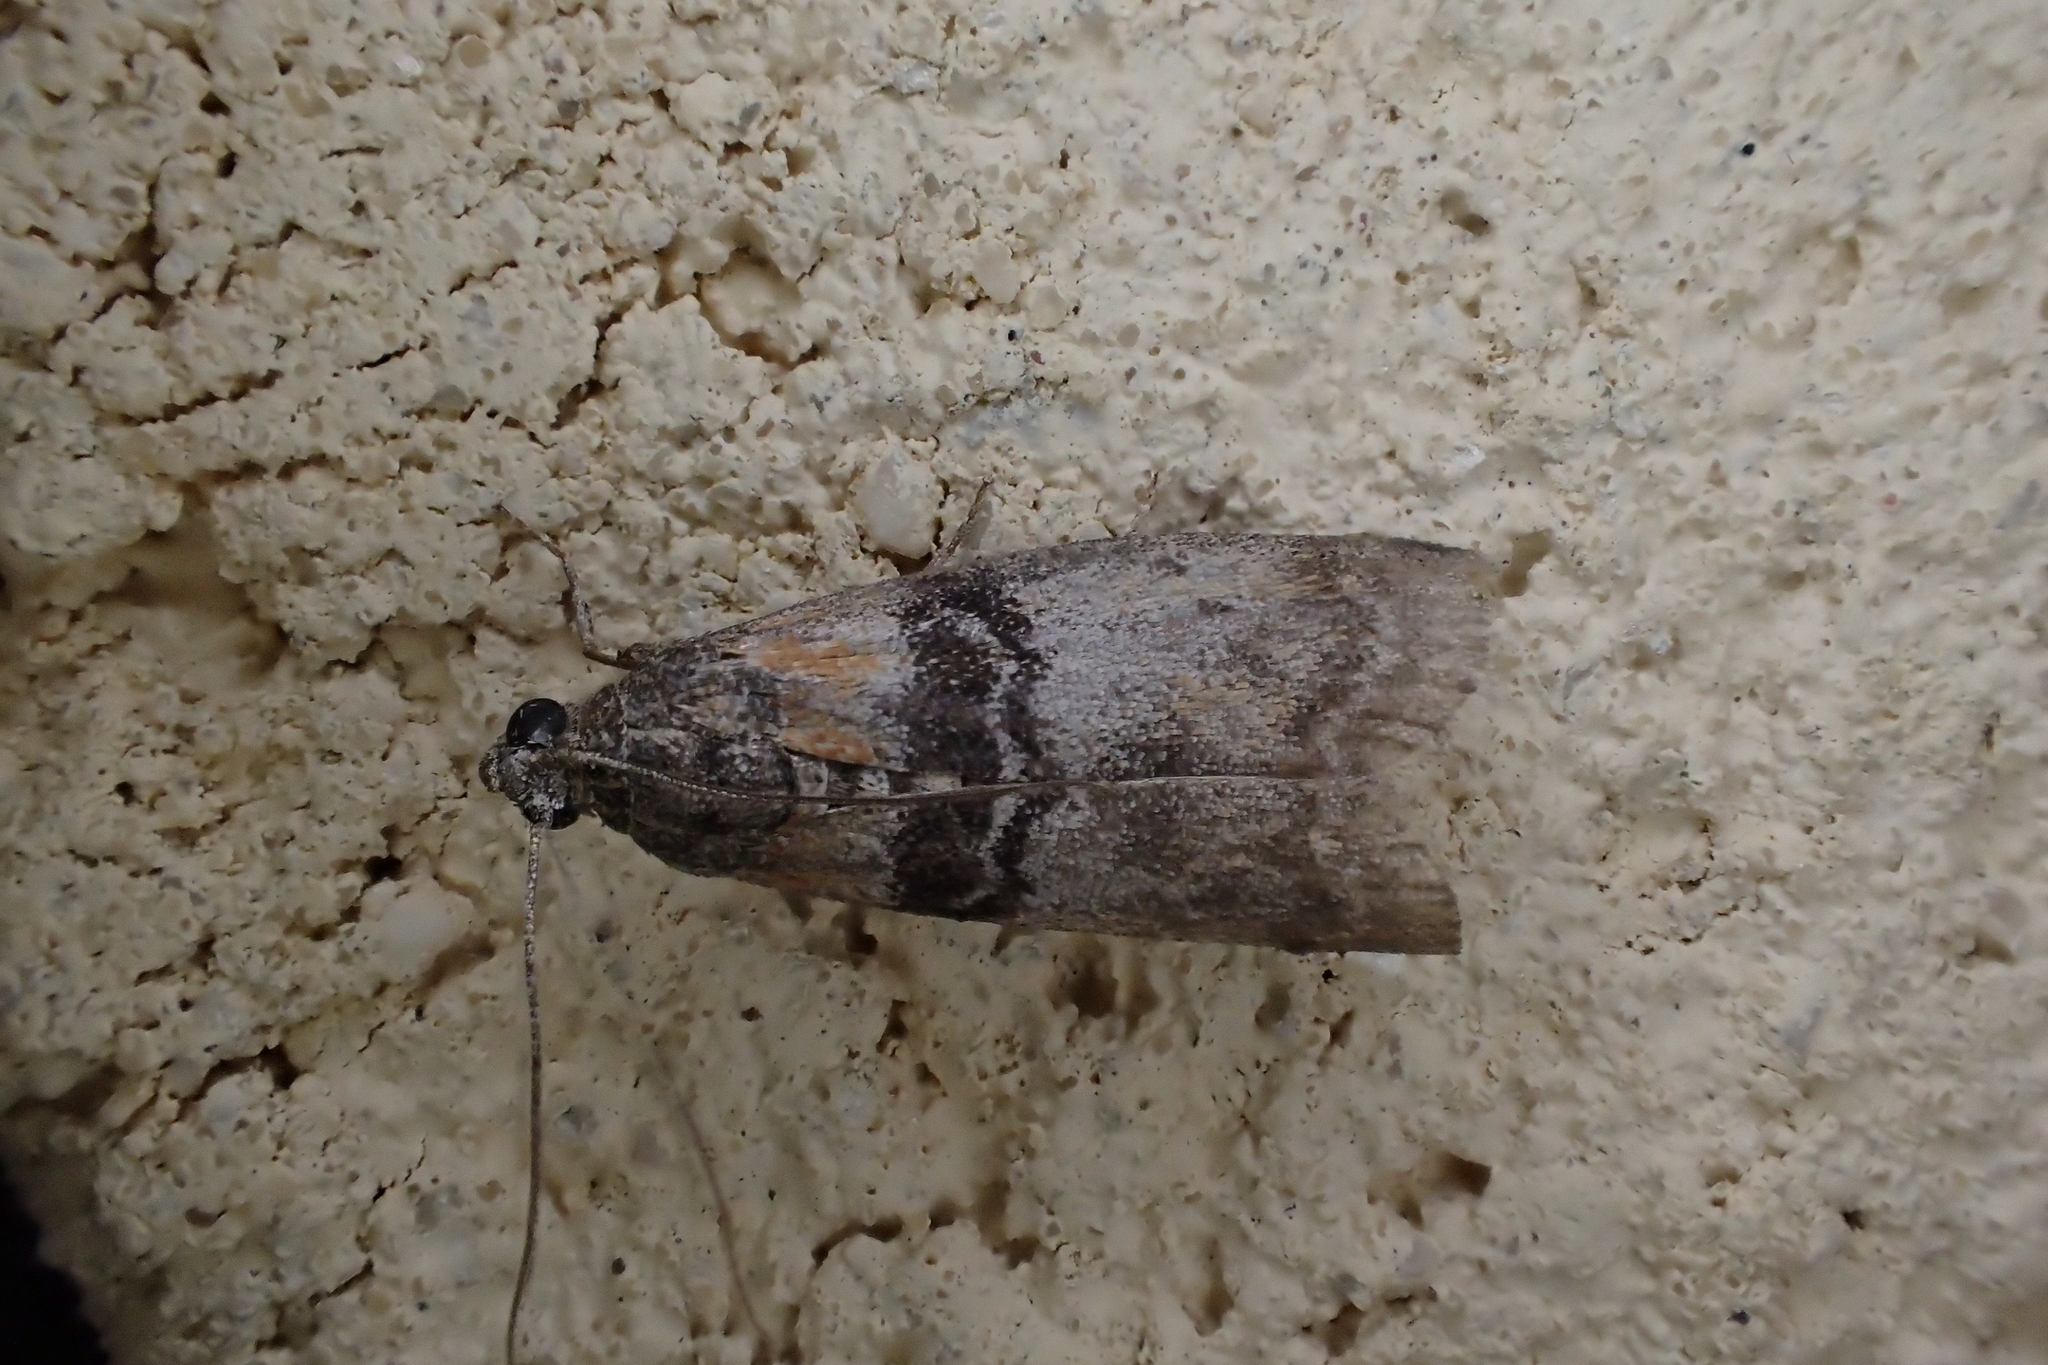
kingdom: Animalia
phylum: Arthropoda
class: Insecta
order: Lepidoptera
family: Pyralidae
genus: Sciota
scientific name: Sciota rhenella
